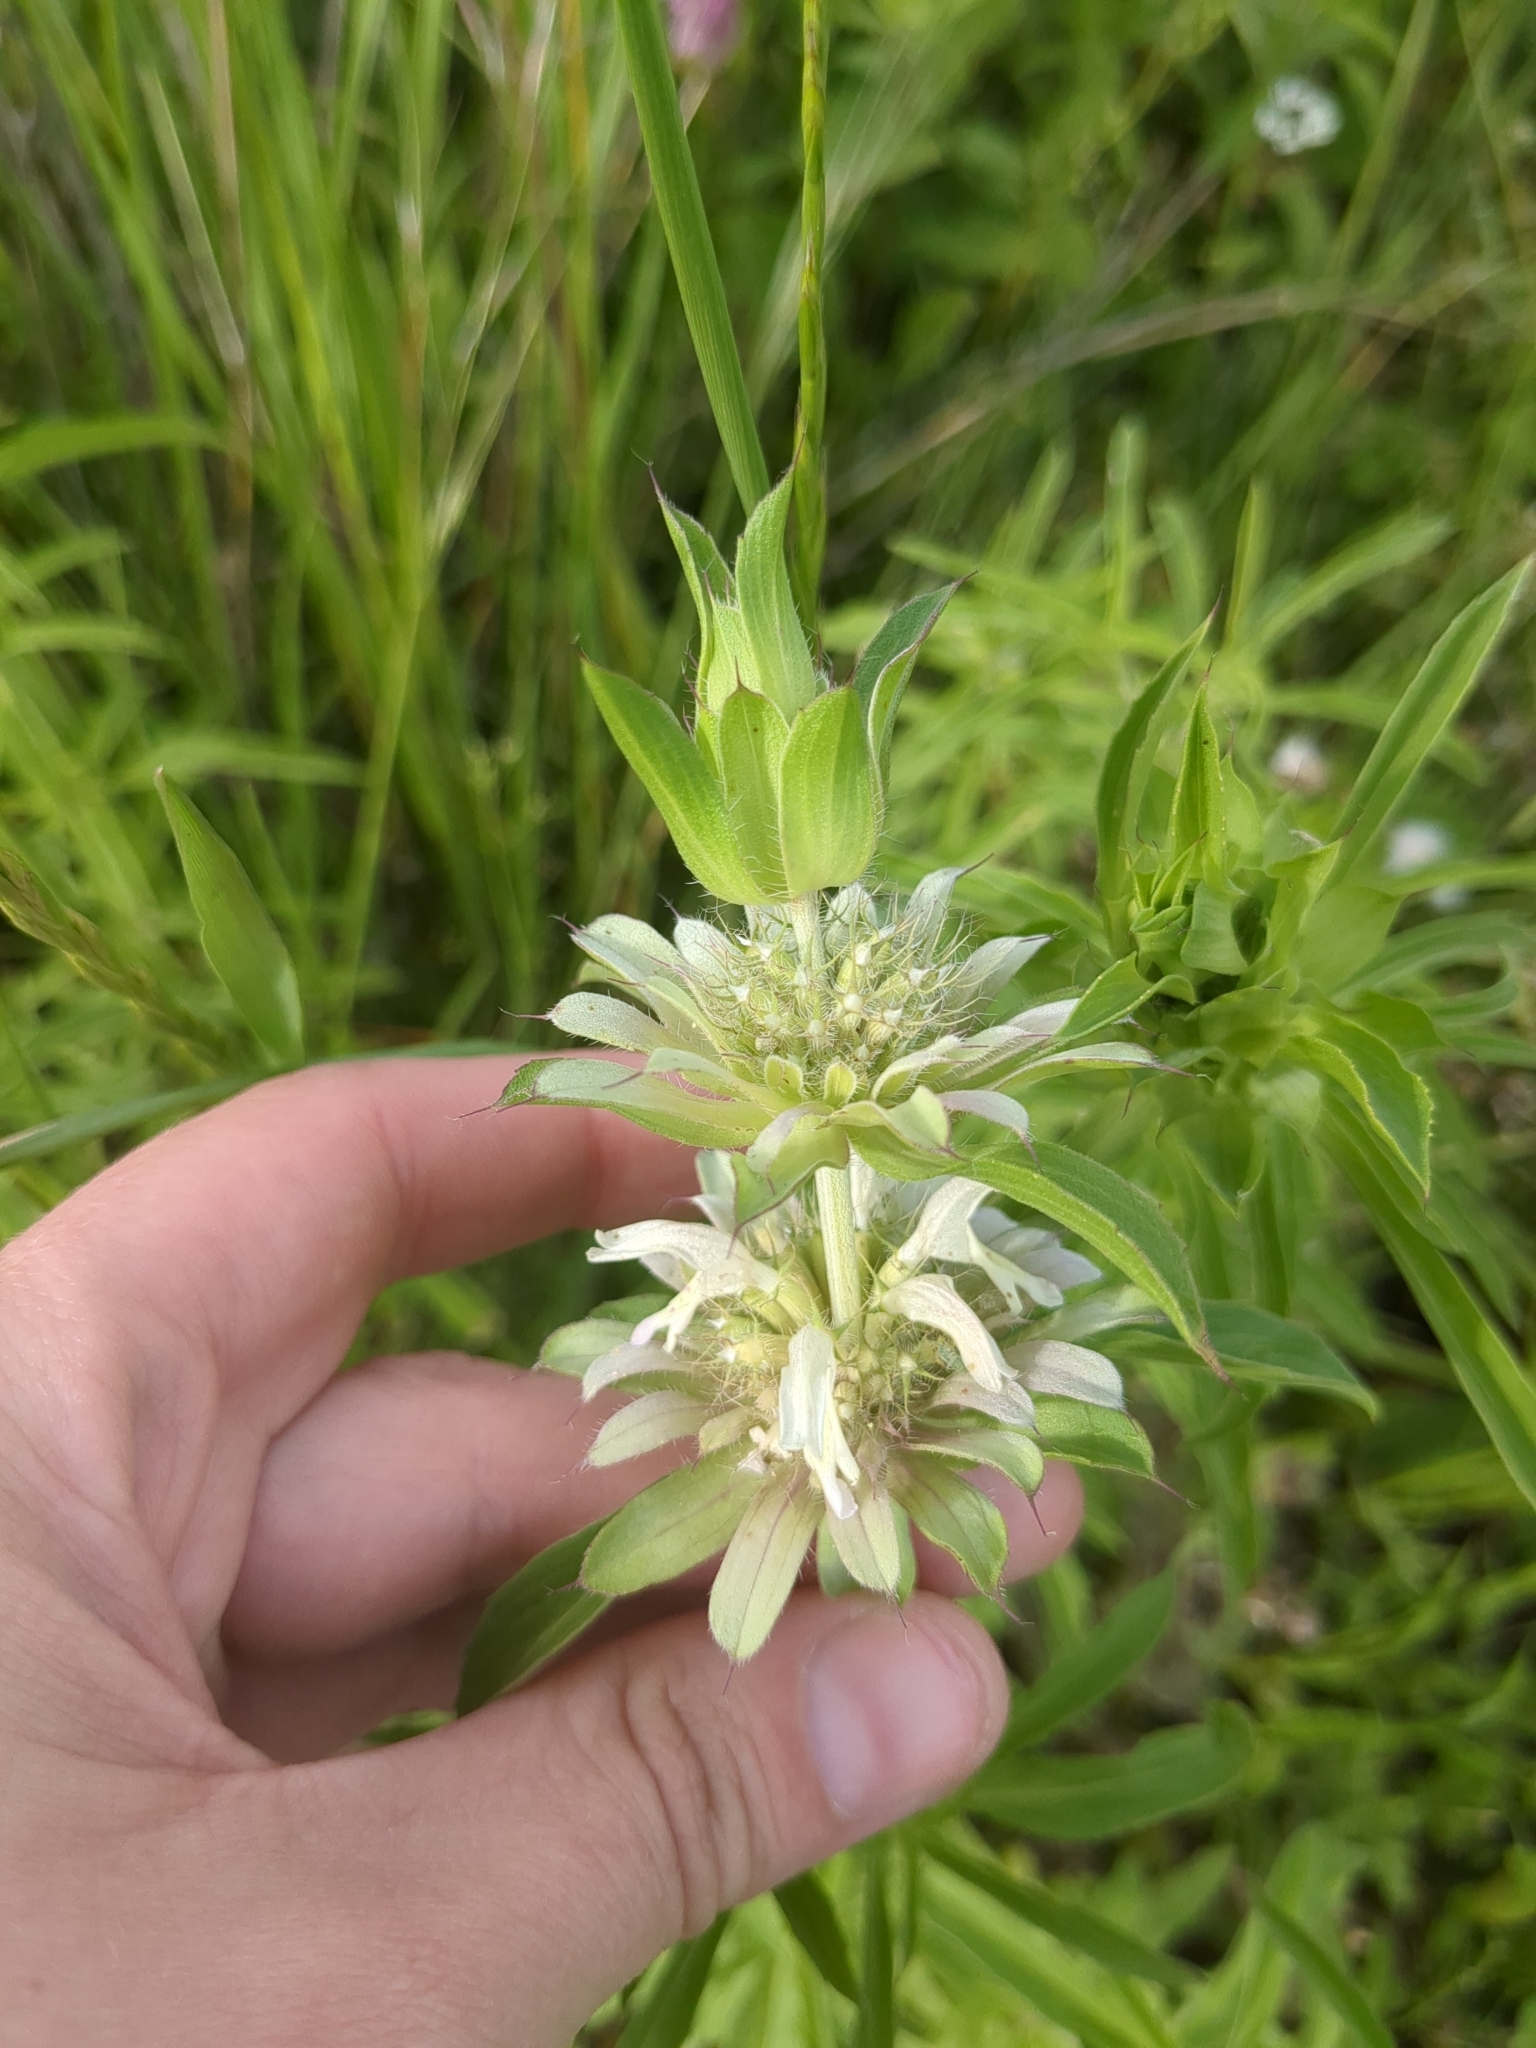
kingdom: Plantae
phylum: Tracheophyta
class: Magnoliopsida
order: Lamiales
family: Lamiaceae
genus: Monarda
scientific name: Monarda citriodora
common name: Lemon beebalm
